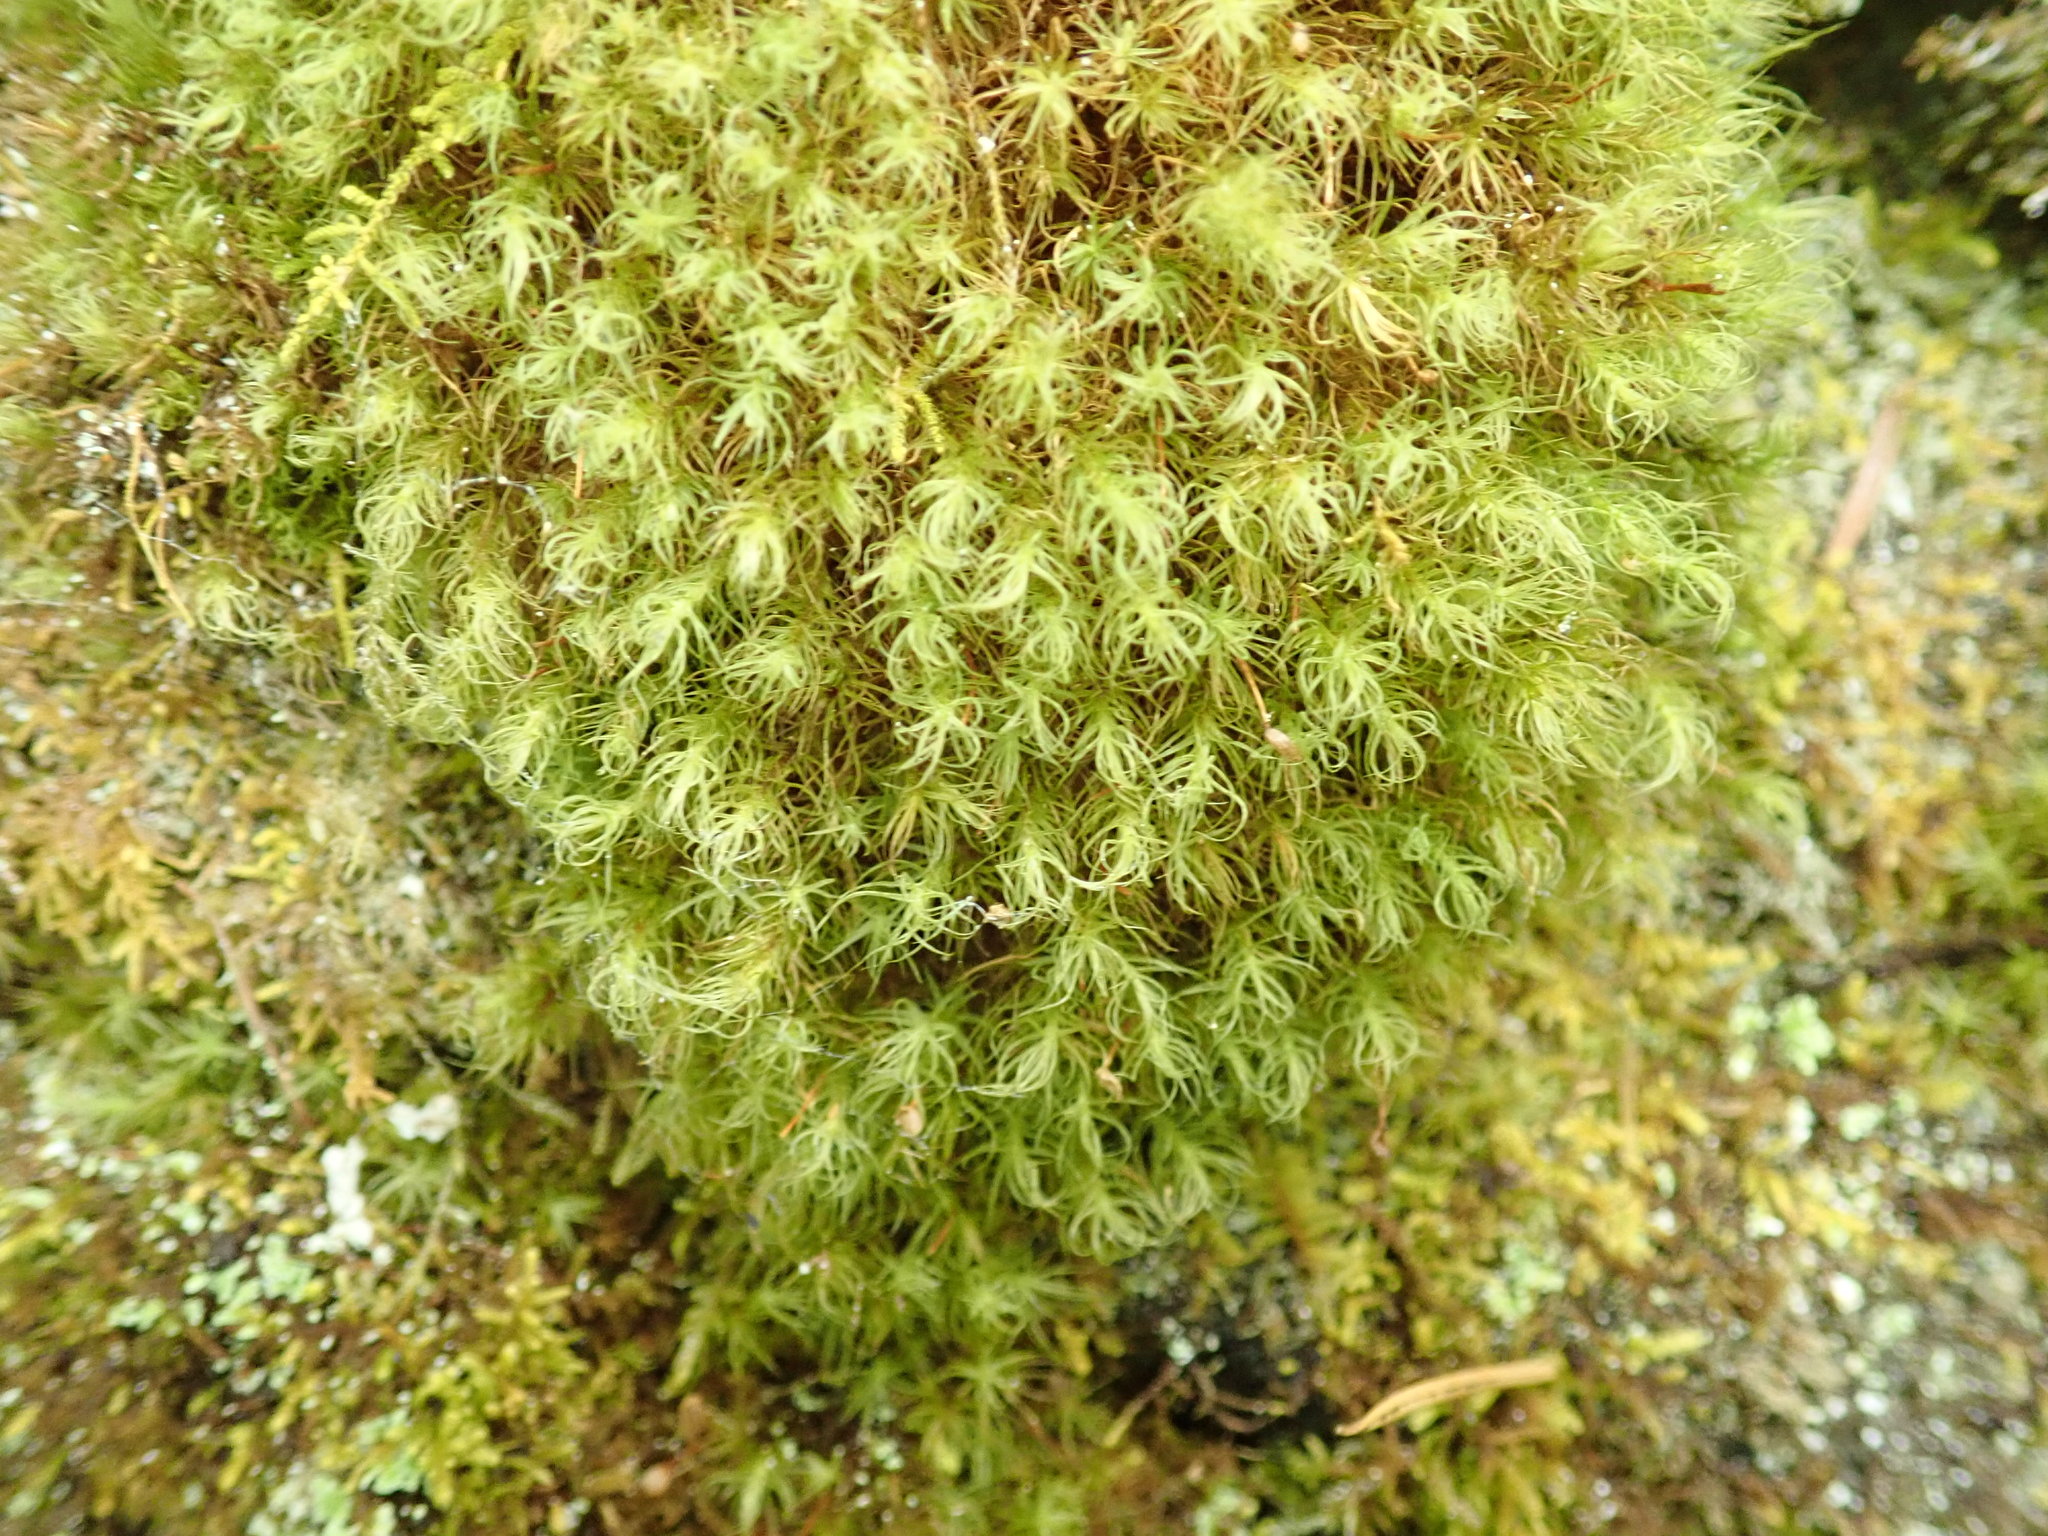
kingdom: Plantae
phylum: Bryophyta
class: Bryopsida
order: Bartramiales
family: Bartramiaceae
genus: Bartramia
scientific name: Bartramia ithyphylla
